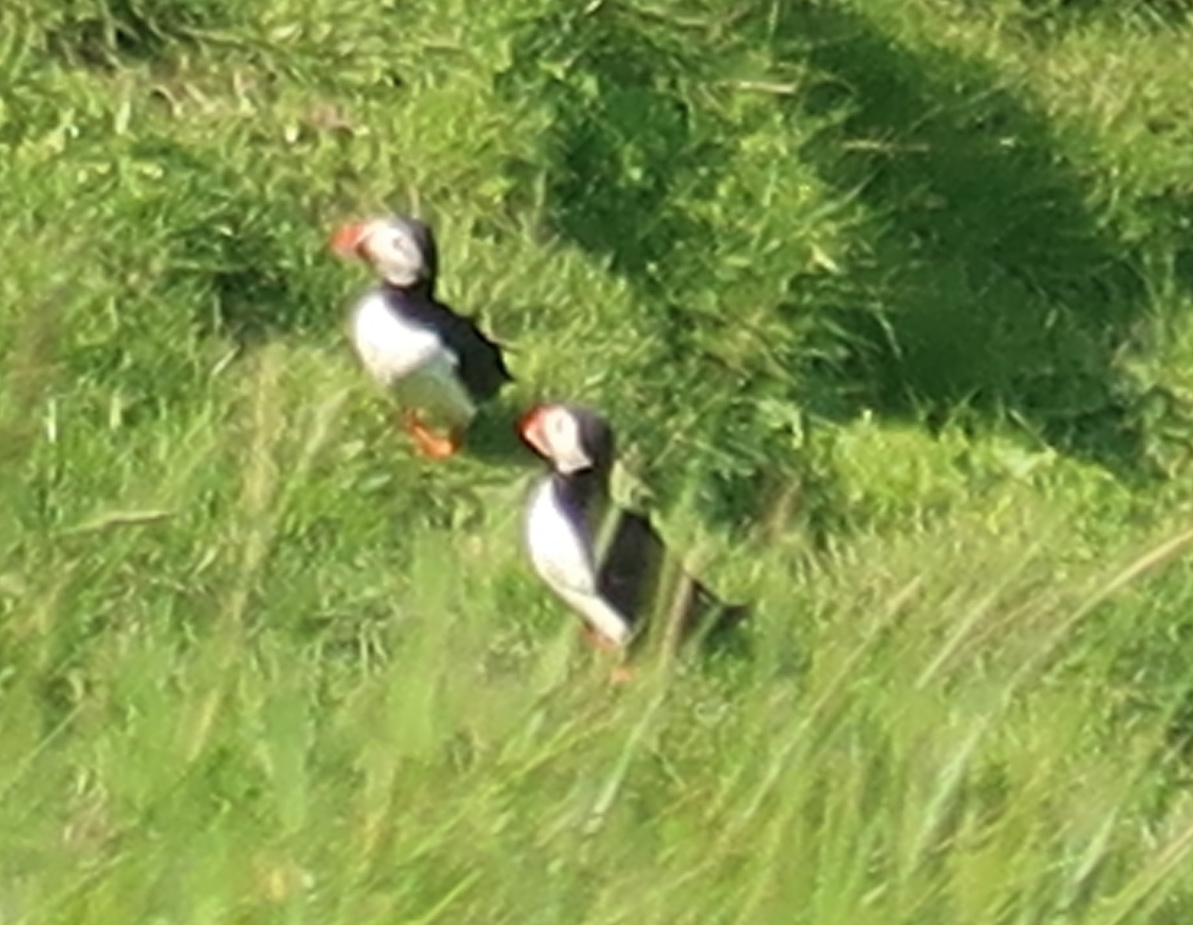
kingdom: Animalia
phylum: Chordata
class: Aves
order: Charadriiformes
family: Alcidae
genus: Fratercula
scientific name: Fratercula arctica
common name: Atlantic puffin
